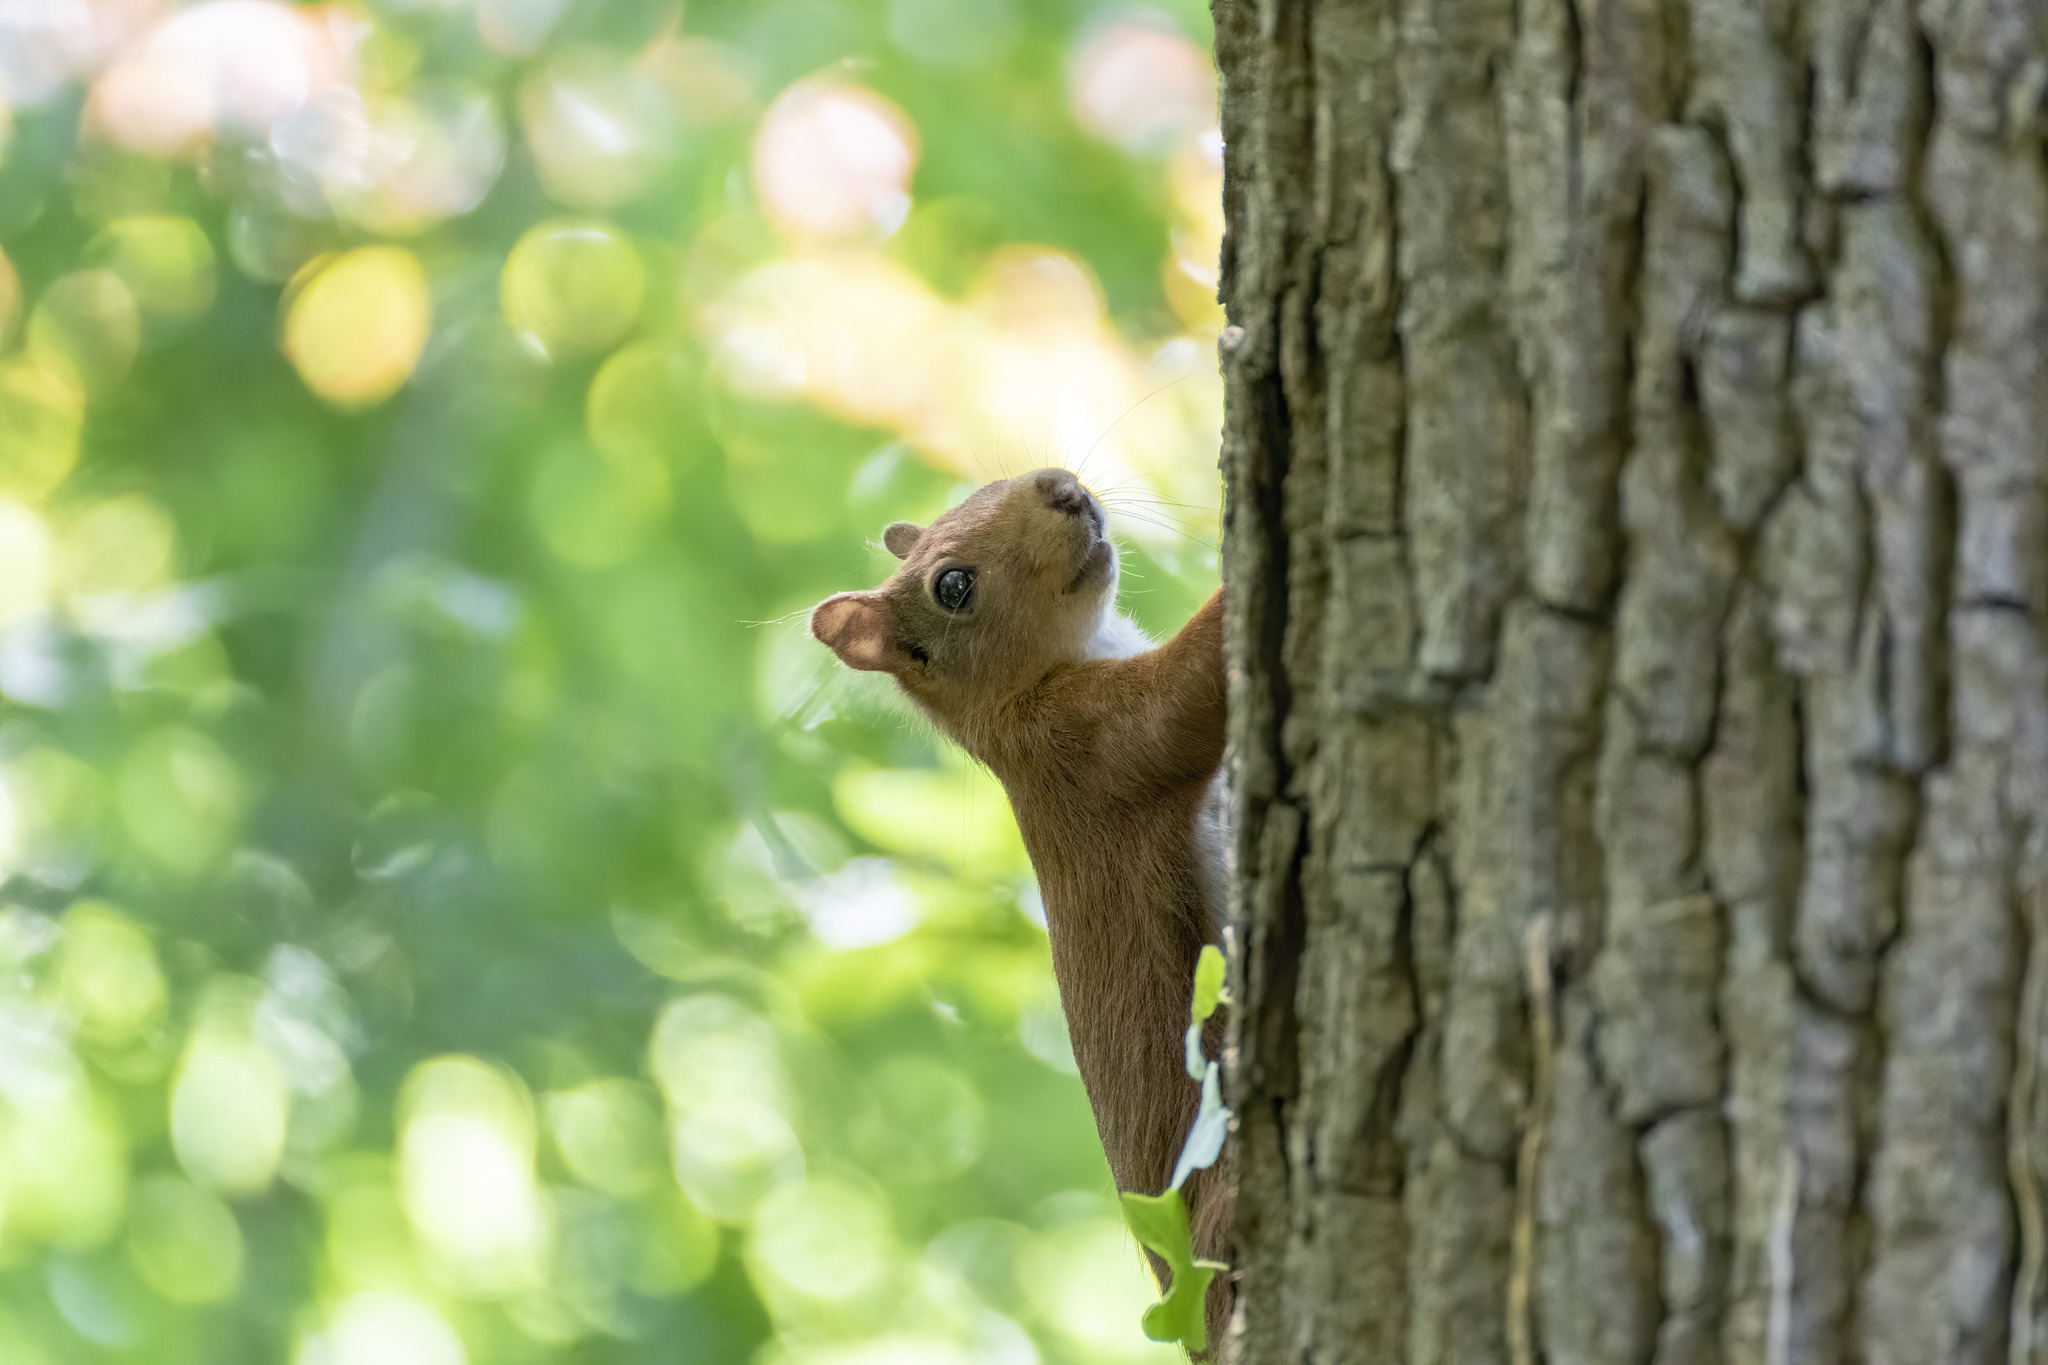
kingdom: Animalia
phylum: Chordata
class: Mammalia
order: Rodentia
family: Sciuridae
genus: Sciurus
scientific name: Sciurus vulgaris
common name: Eurasian red squirrel
